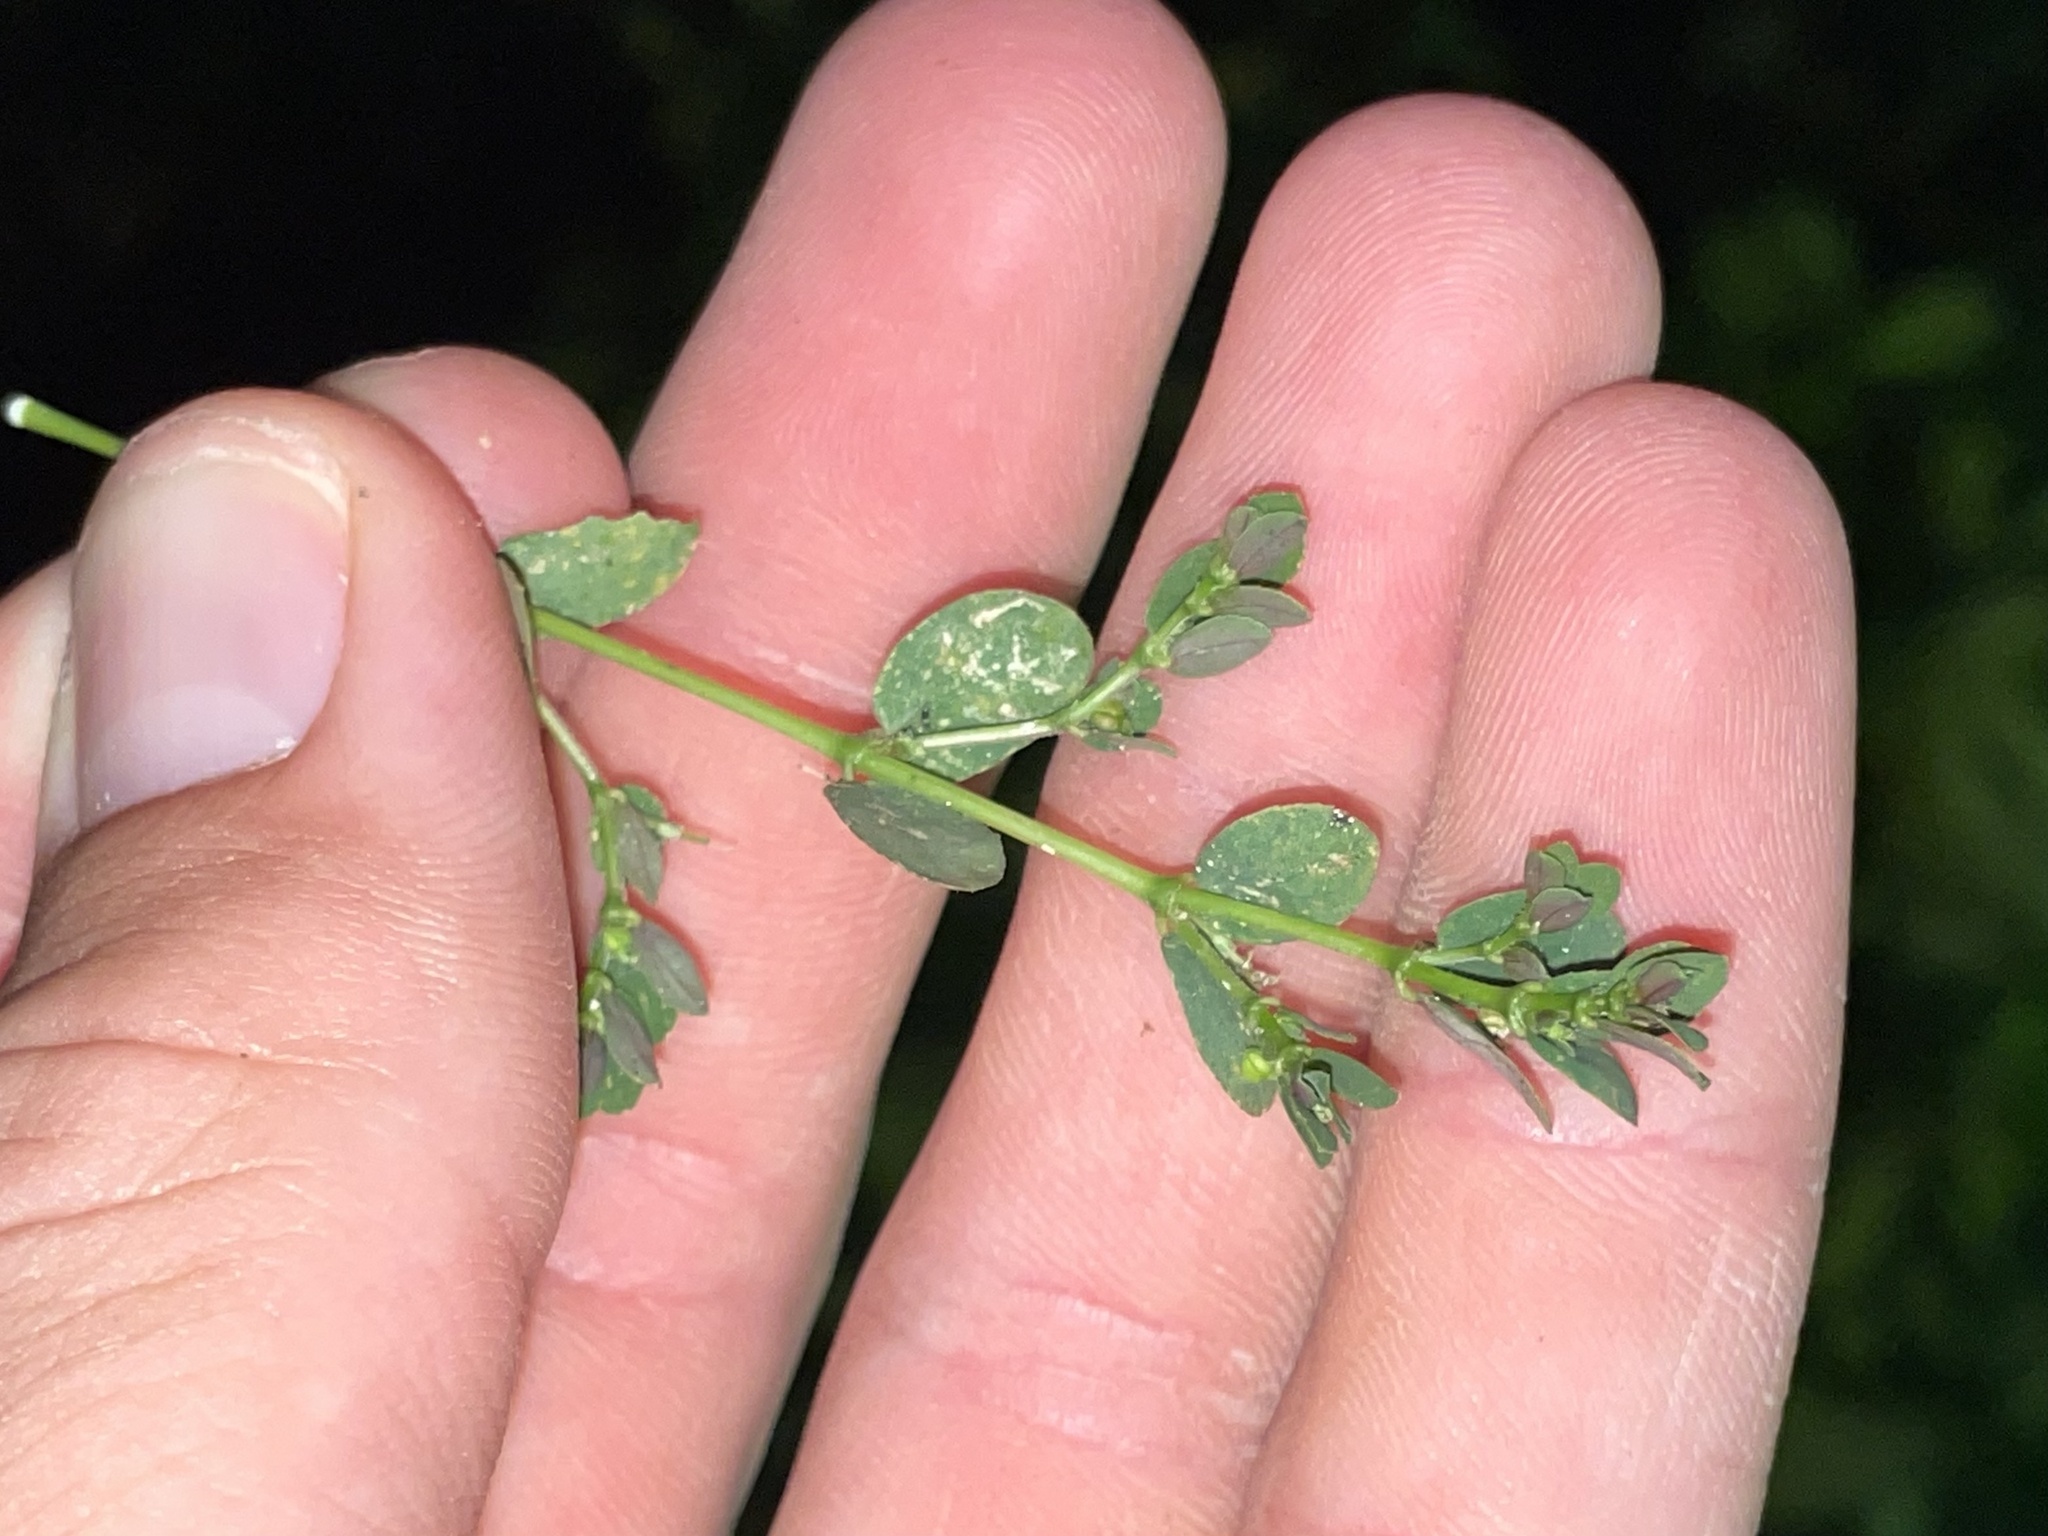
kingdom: Plantae
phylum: Tracheophyta
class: Magnoliopsida
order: Malpighiales
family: Euphorbiaceae
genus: Euphorbia
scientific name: Euphorbia prostrata
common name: Prostrate sandmat
